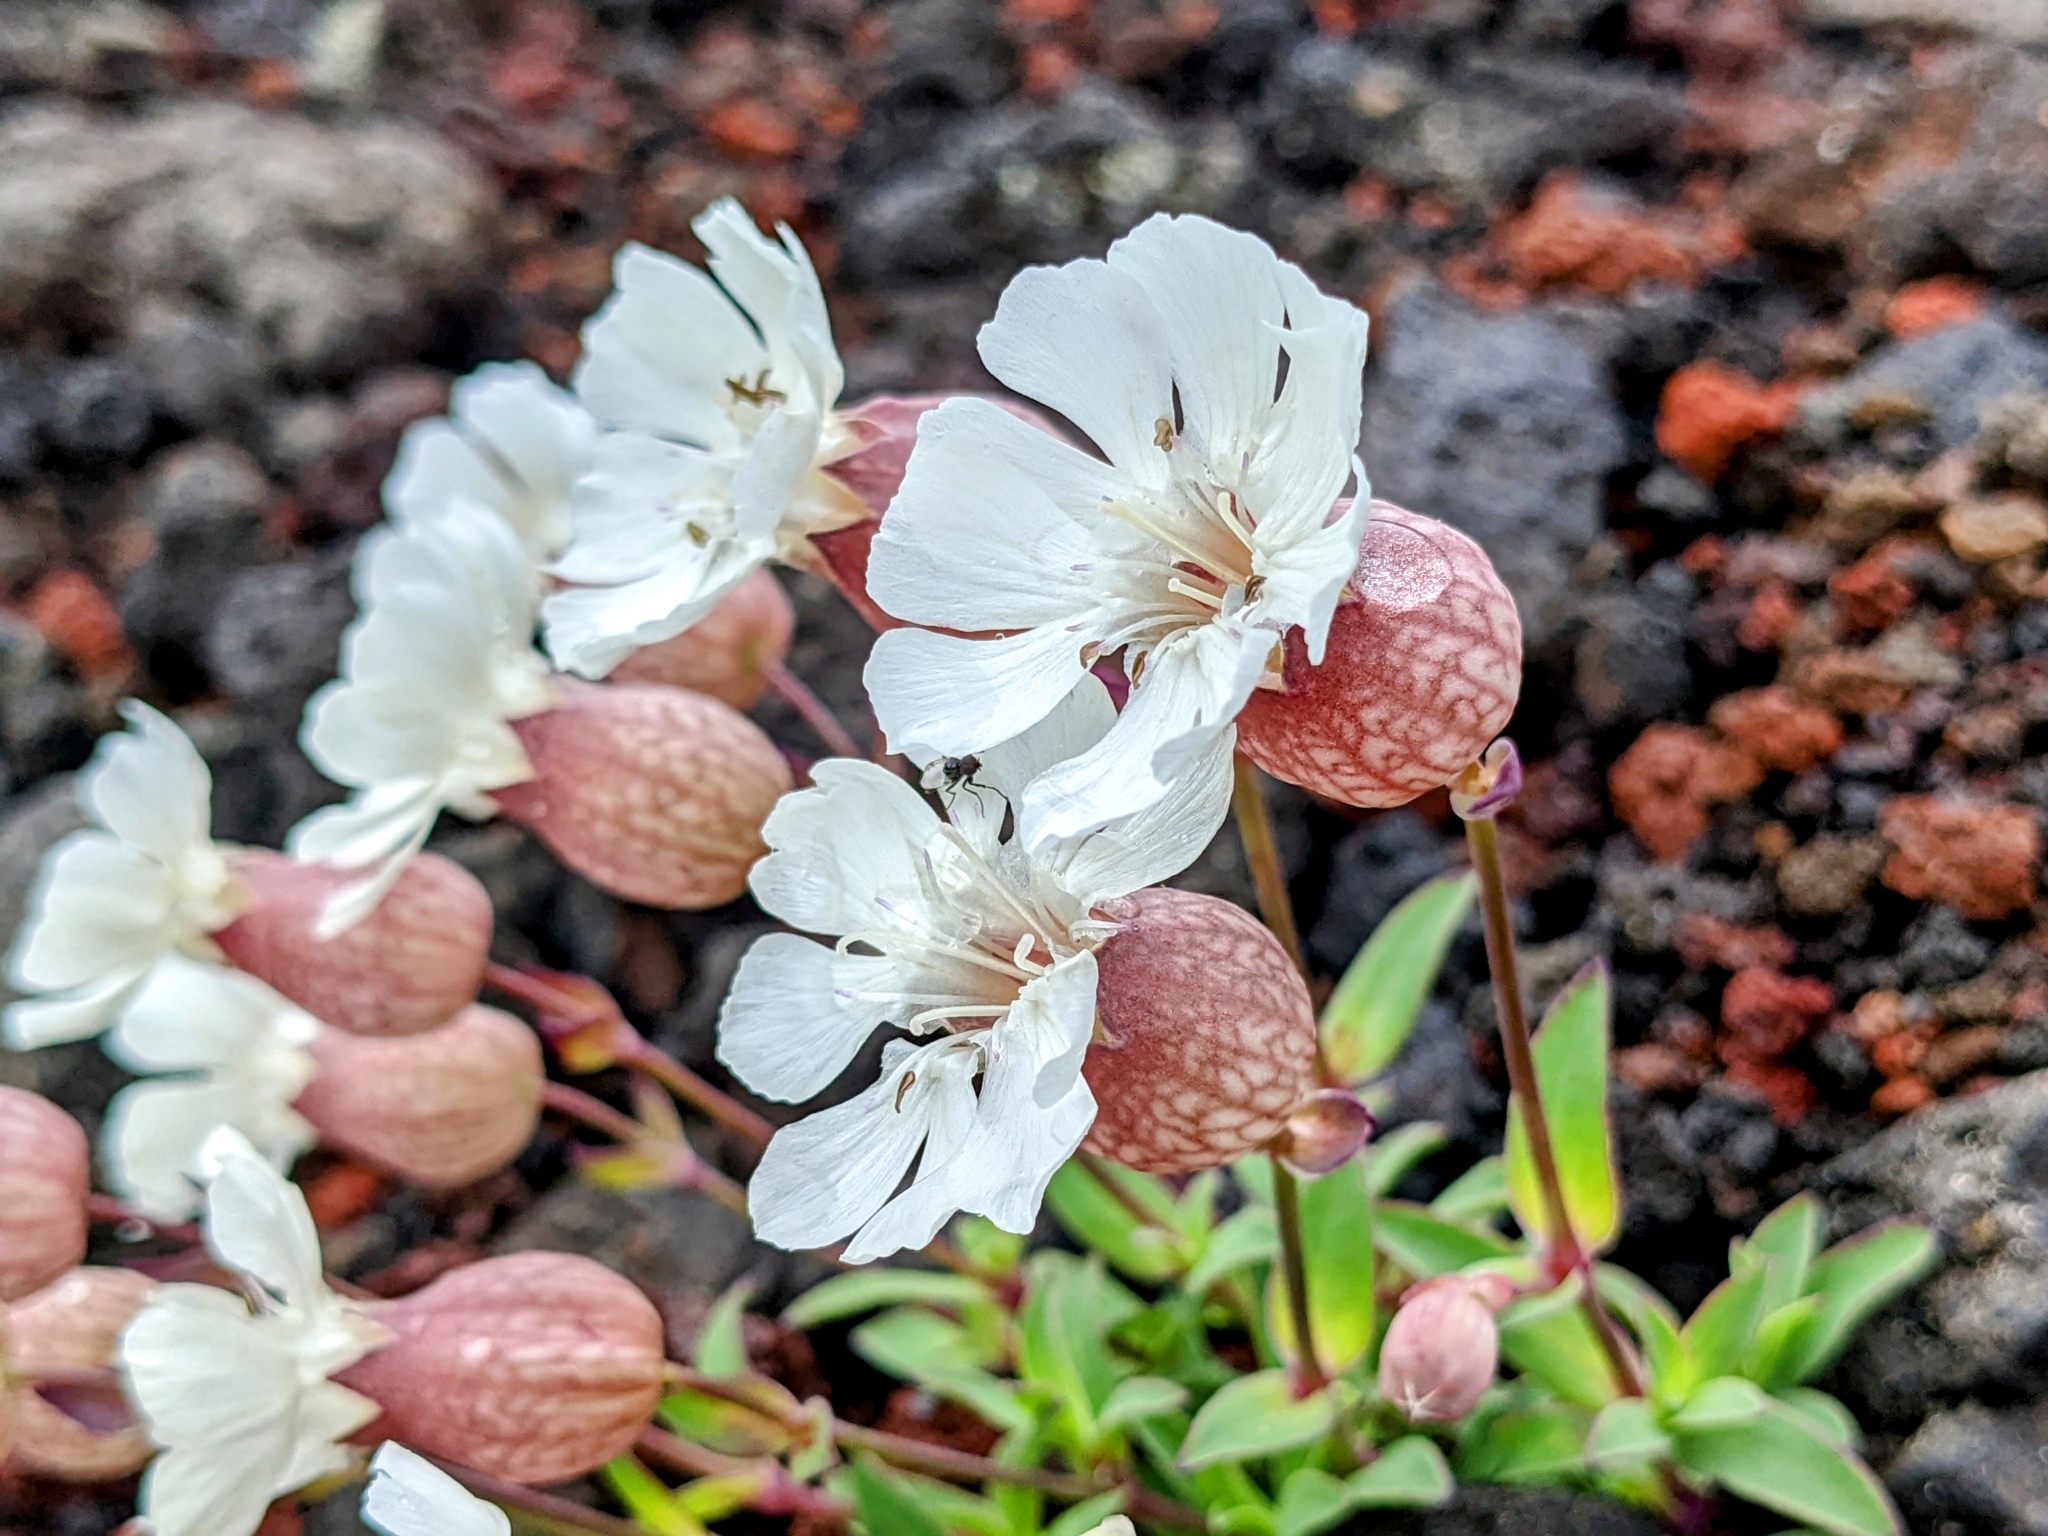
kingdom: Plantae
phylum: Tracheophyta
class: Magnoliopsida
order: Caryophyllales
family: Caryophyllaceae
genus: Silene
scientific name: Silene uniflora
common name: Sea campion
